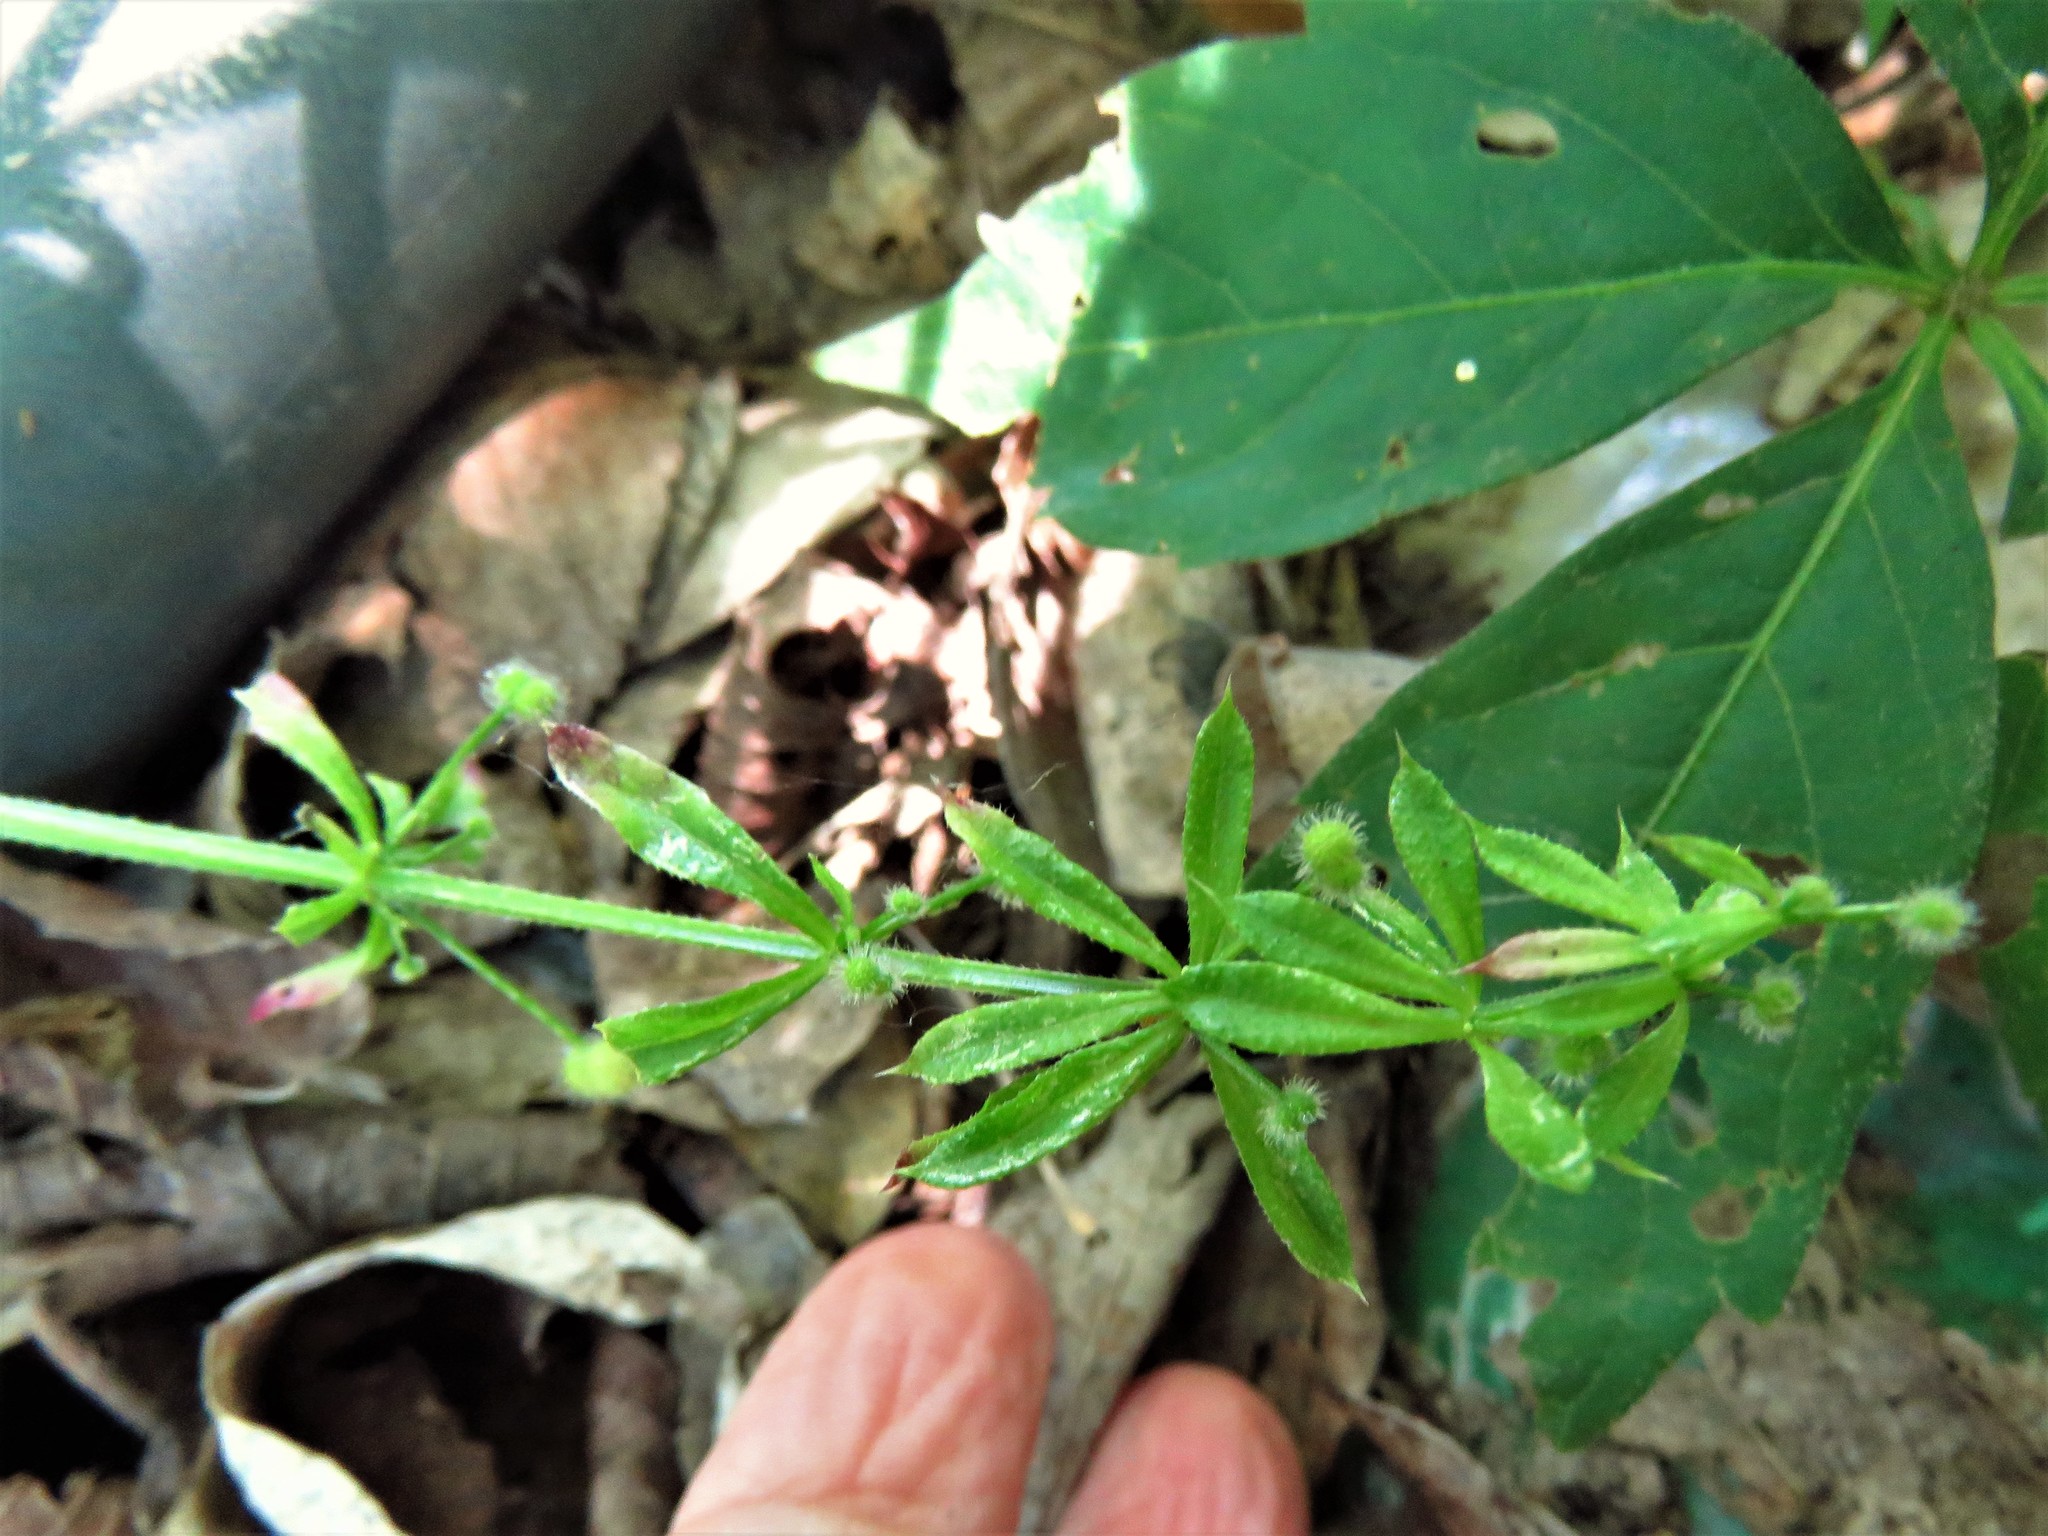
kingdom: Plantae
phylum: Tracheophyta
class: Magnoliopsida
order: Gentianales
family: Rubiaceae
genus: Galium
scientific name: Galium aparine
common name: Cleavers
